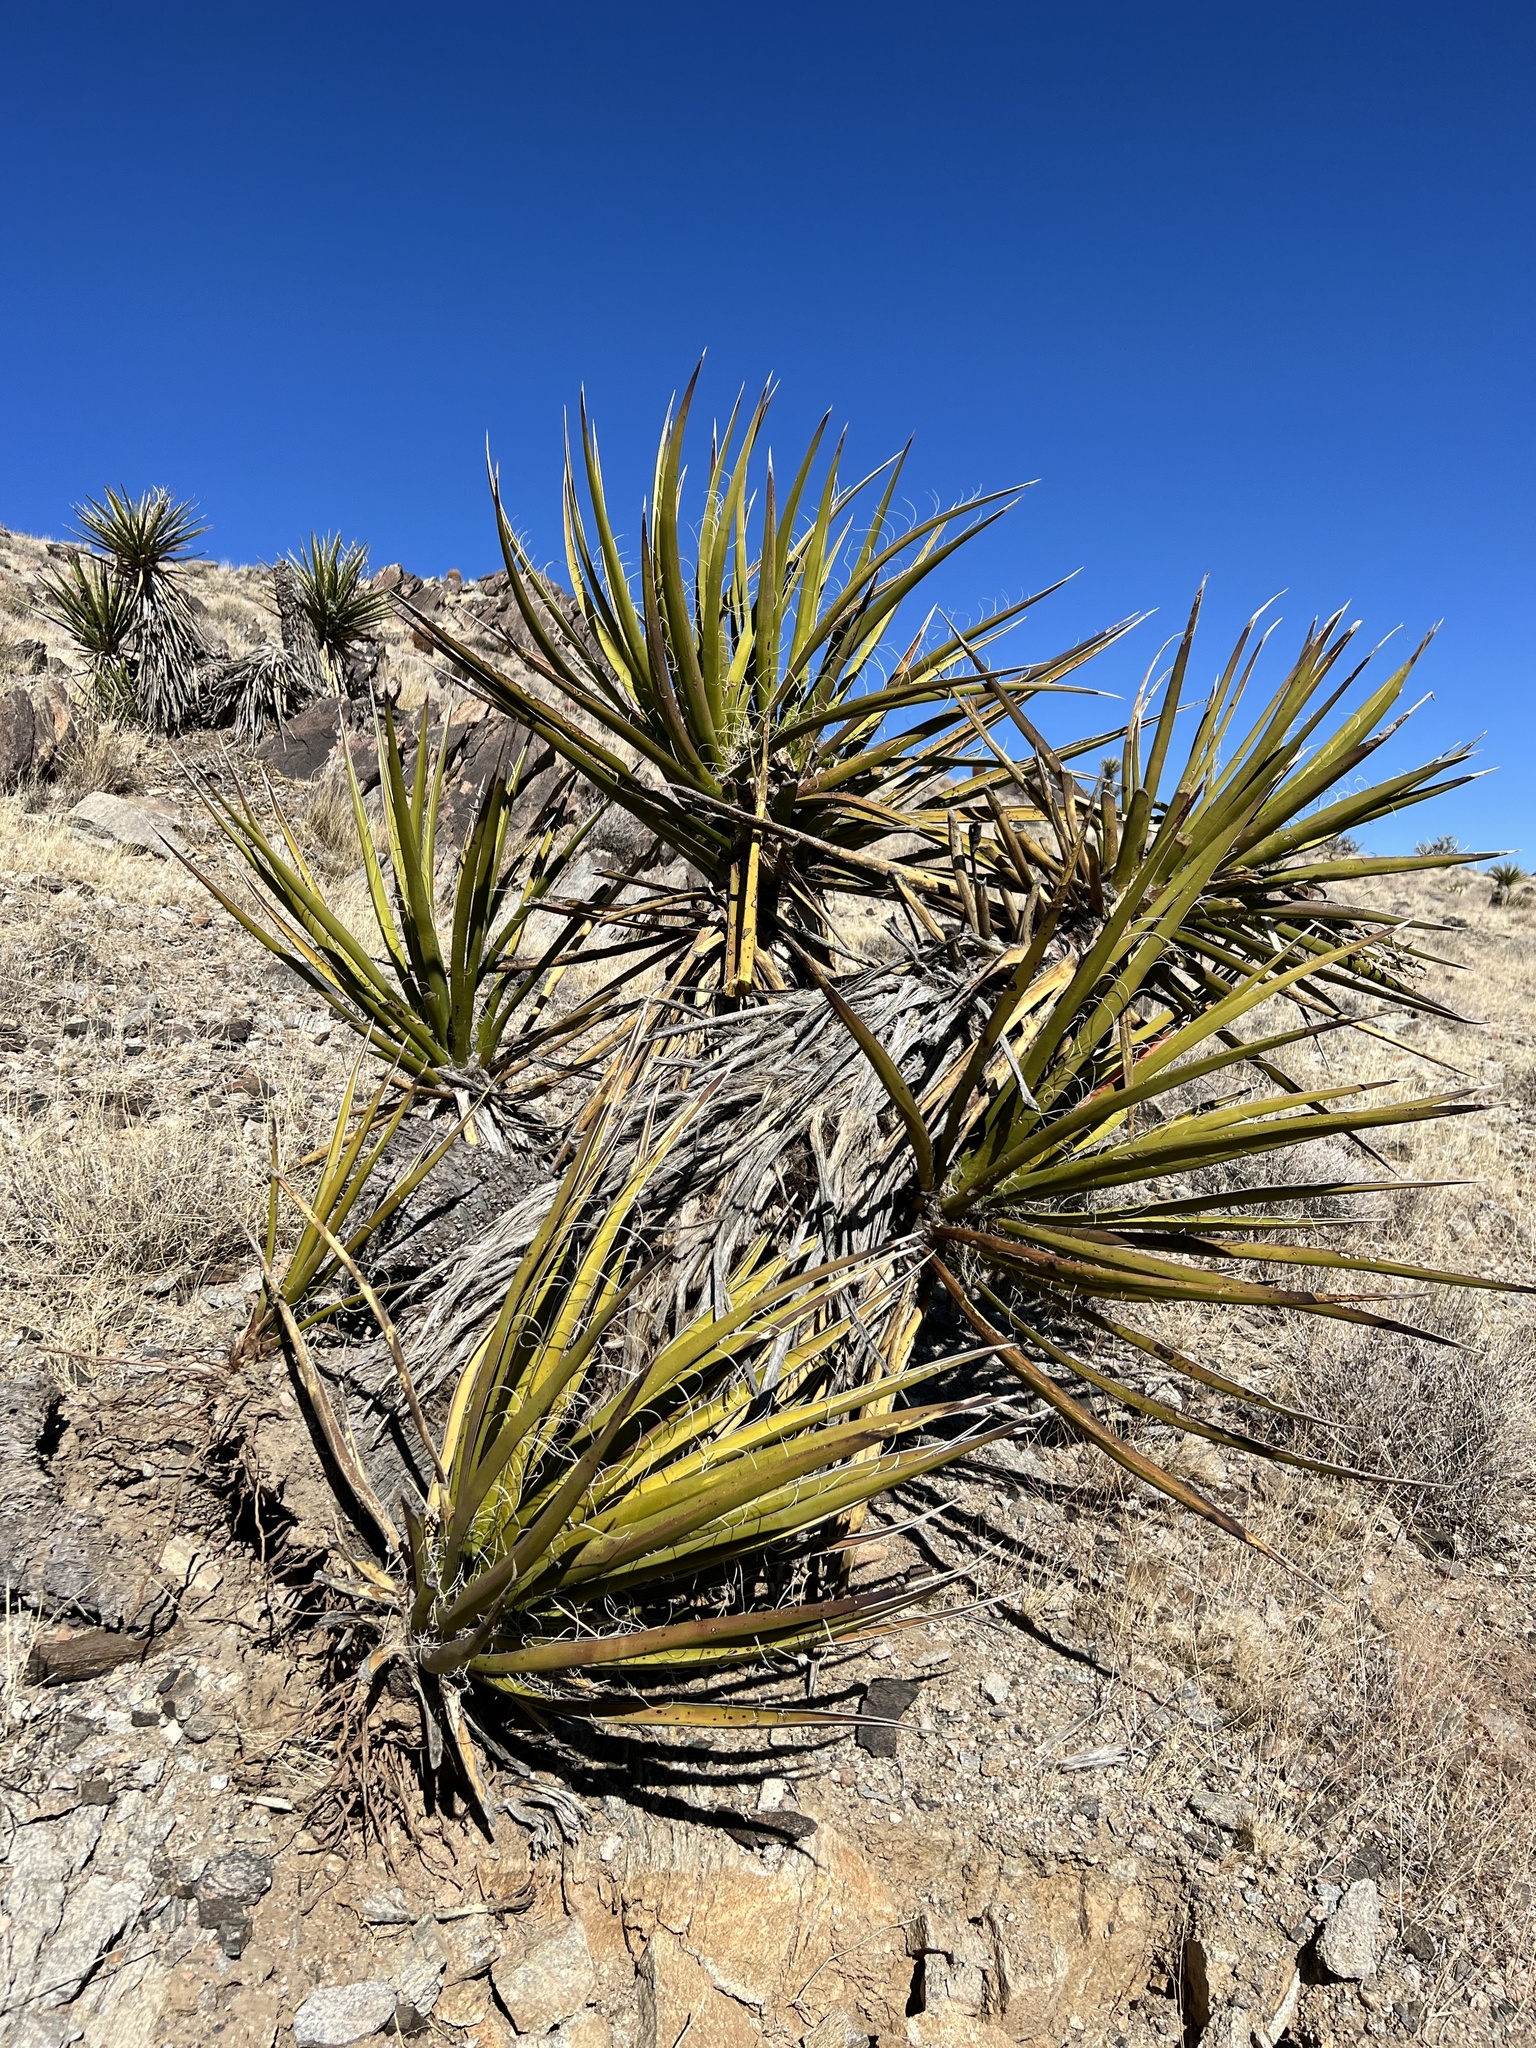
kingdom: Plantae
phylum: Tracheophyta
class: Liliopsida
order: Asparagales
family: Asparagaceae
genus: Yucca
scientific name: Yucca schidigera
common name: Mojave yucca
